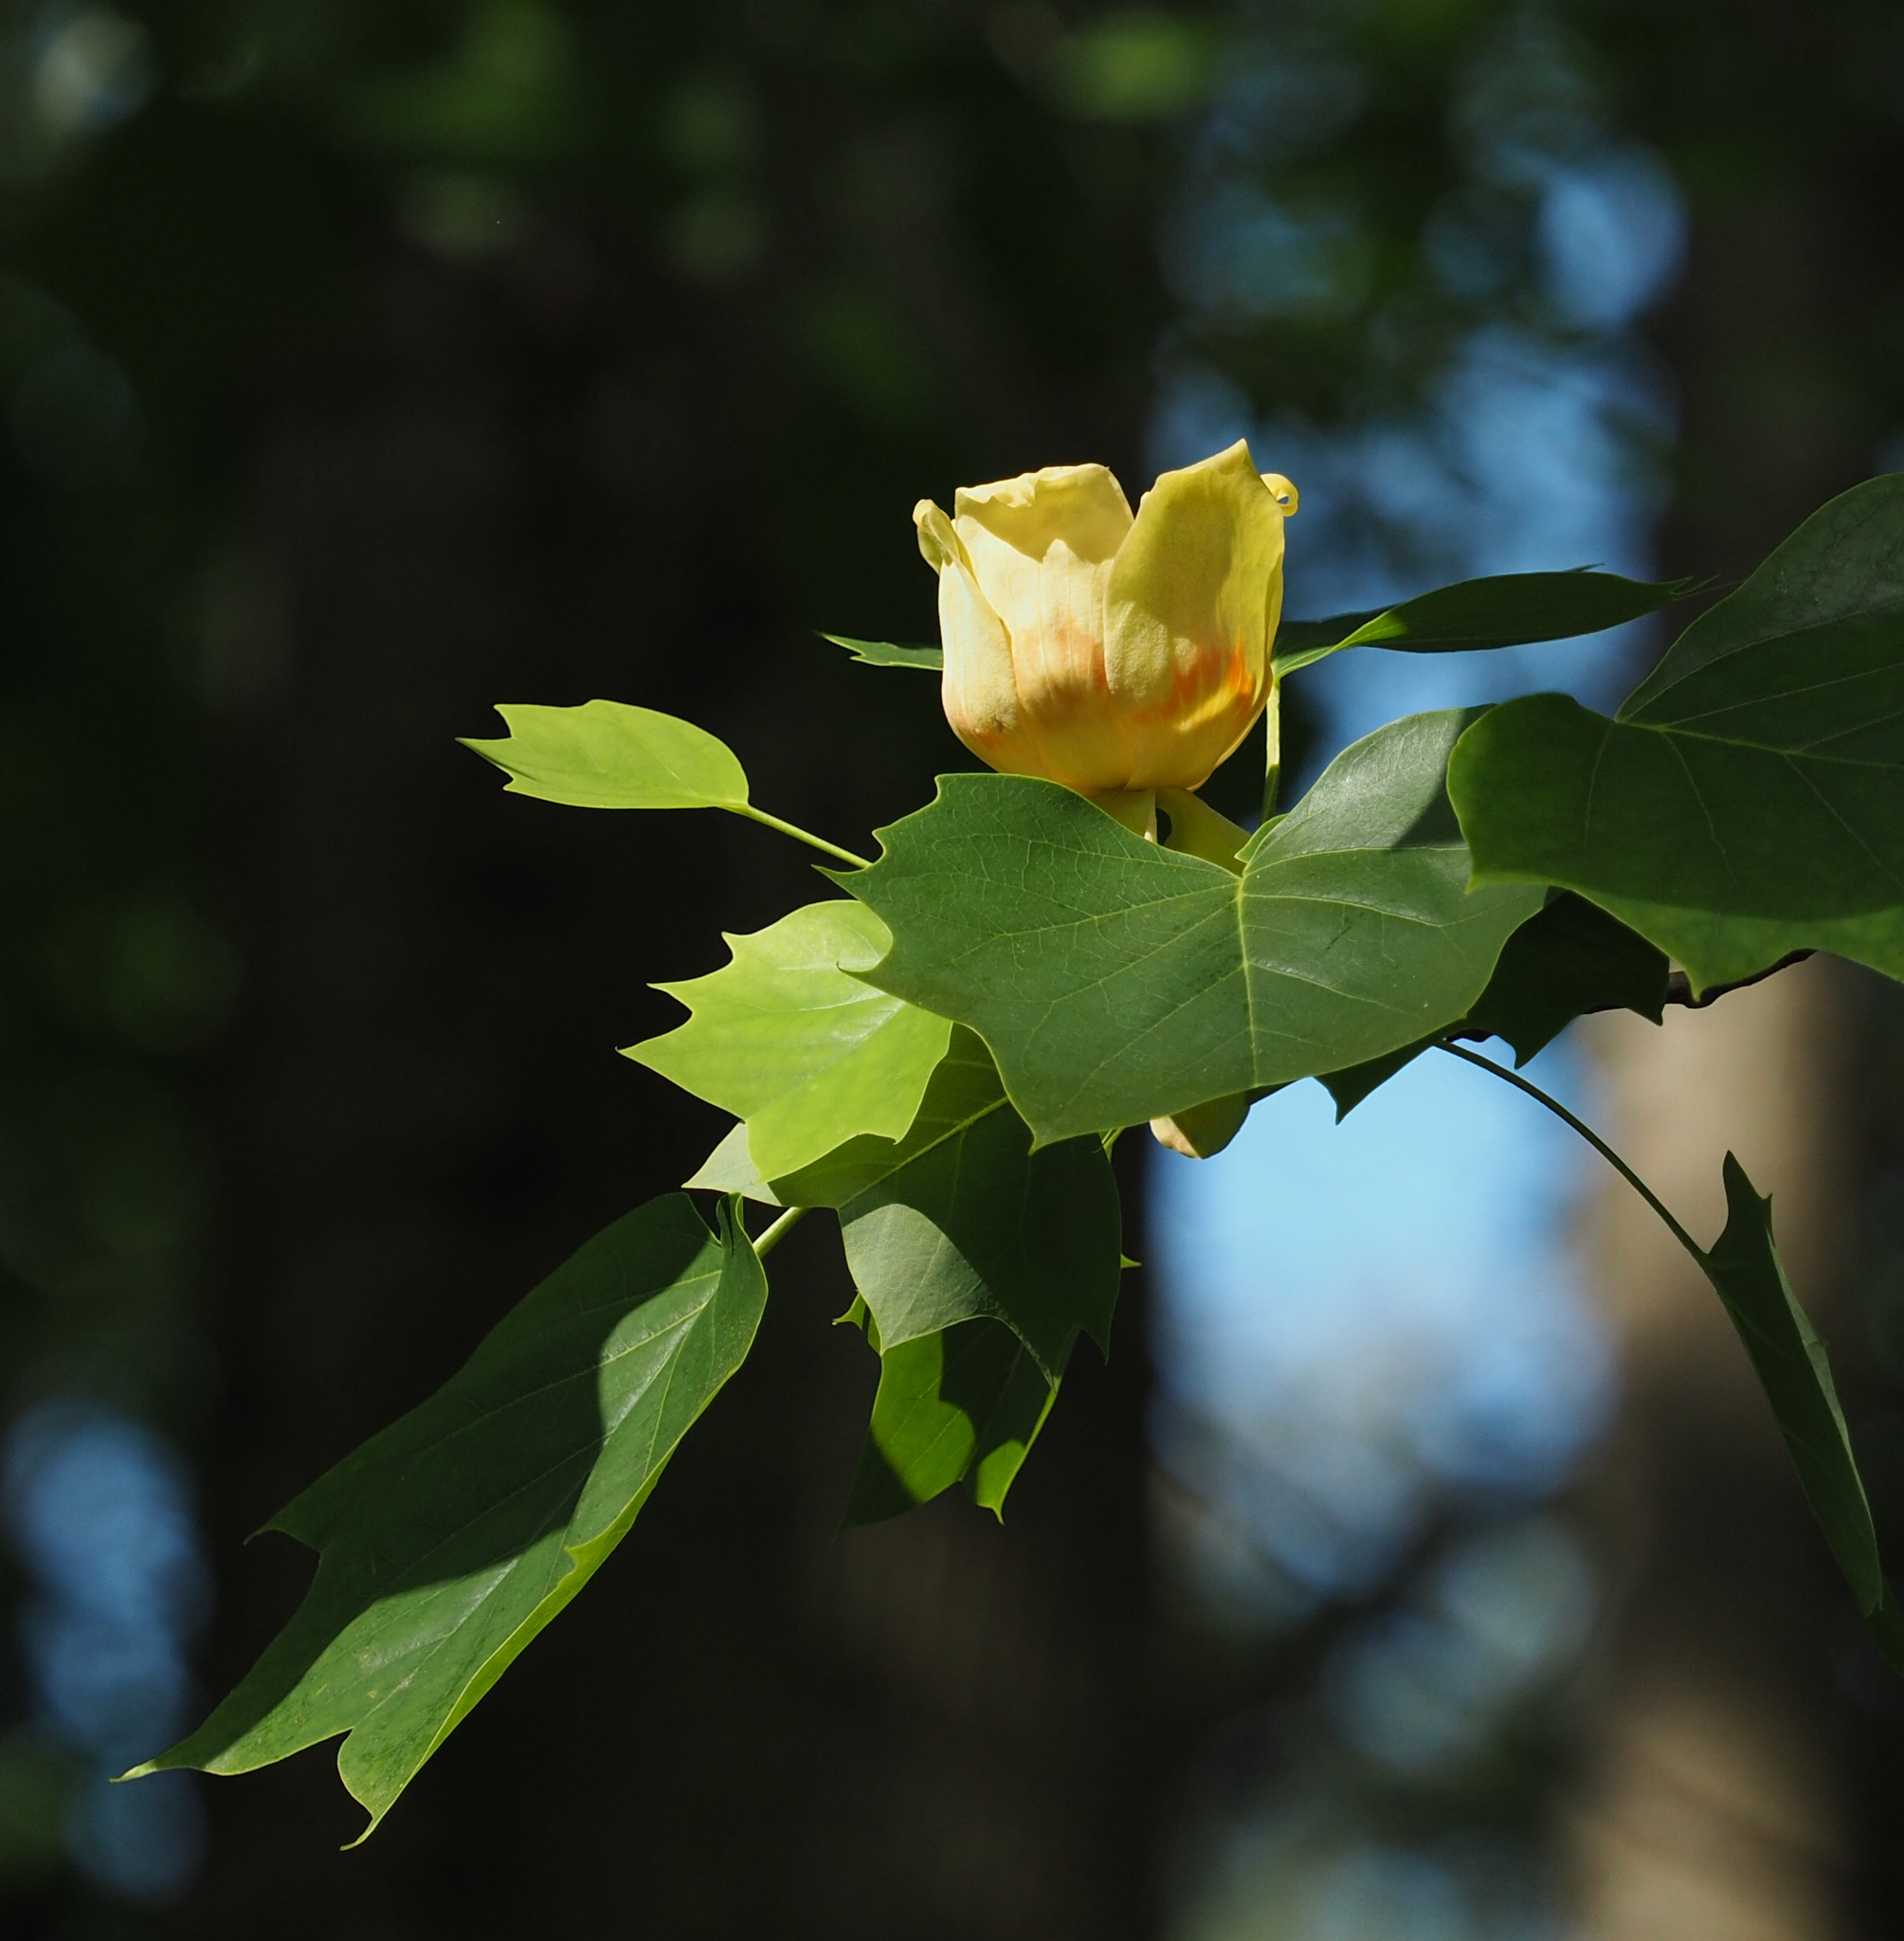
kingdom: Plantae
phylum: Tracheophyta
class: Magnoliopsida
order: Magnoliales
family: Magnoliaceae
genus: Liriodendron
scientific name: Liriodendron tulipifera
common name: Tulip tree
